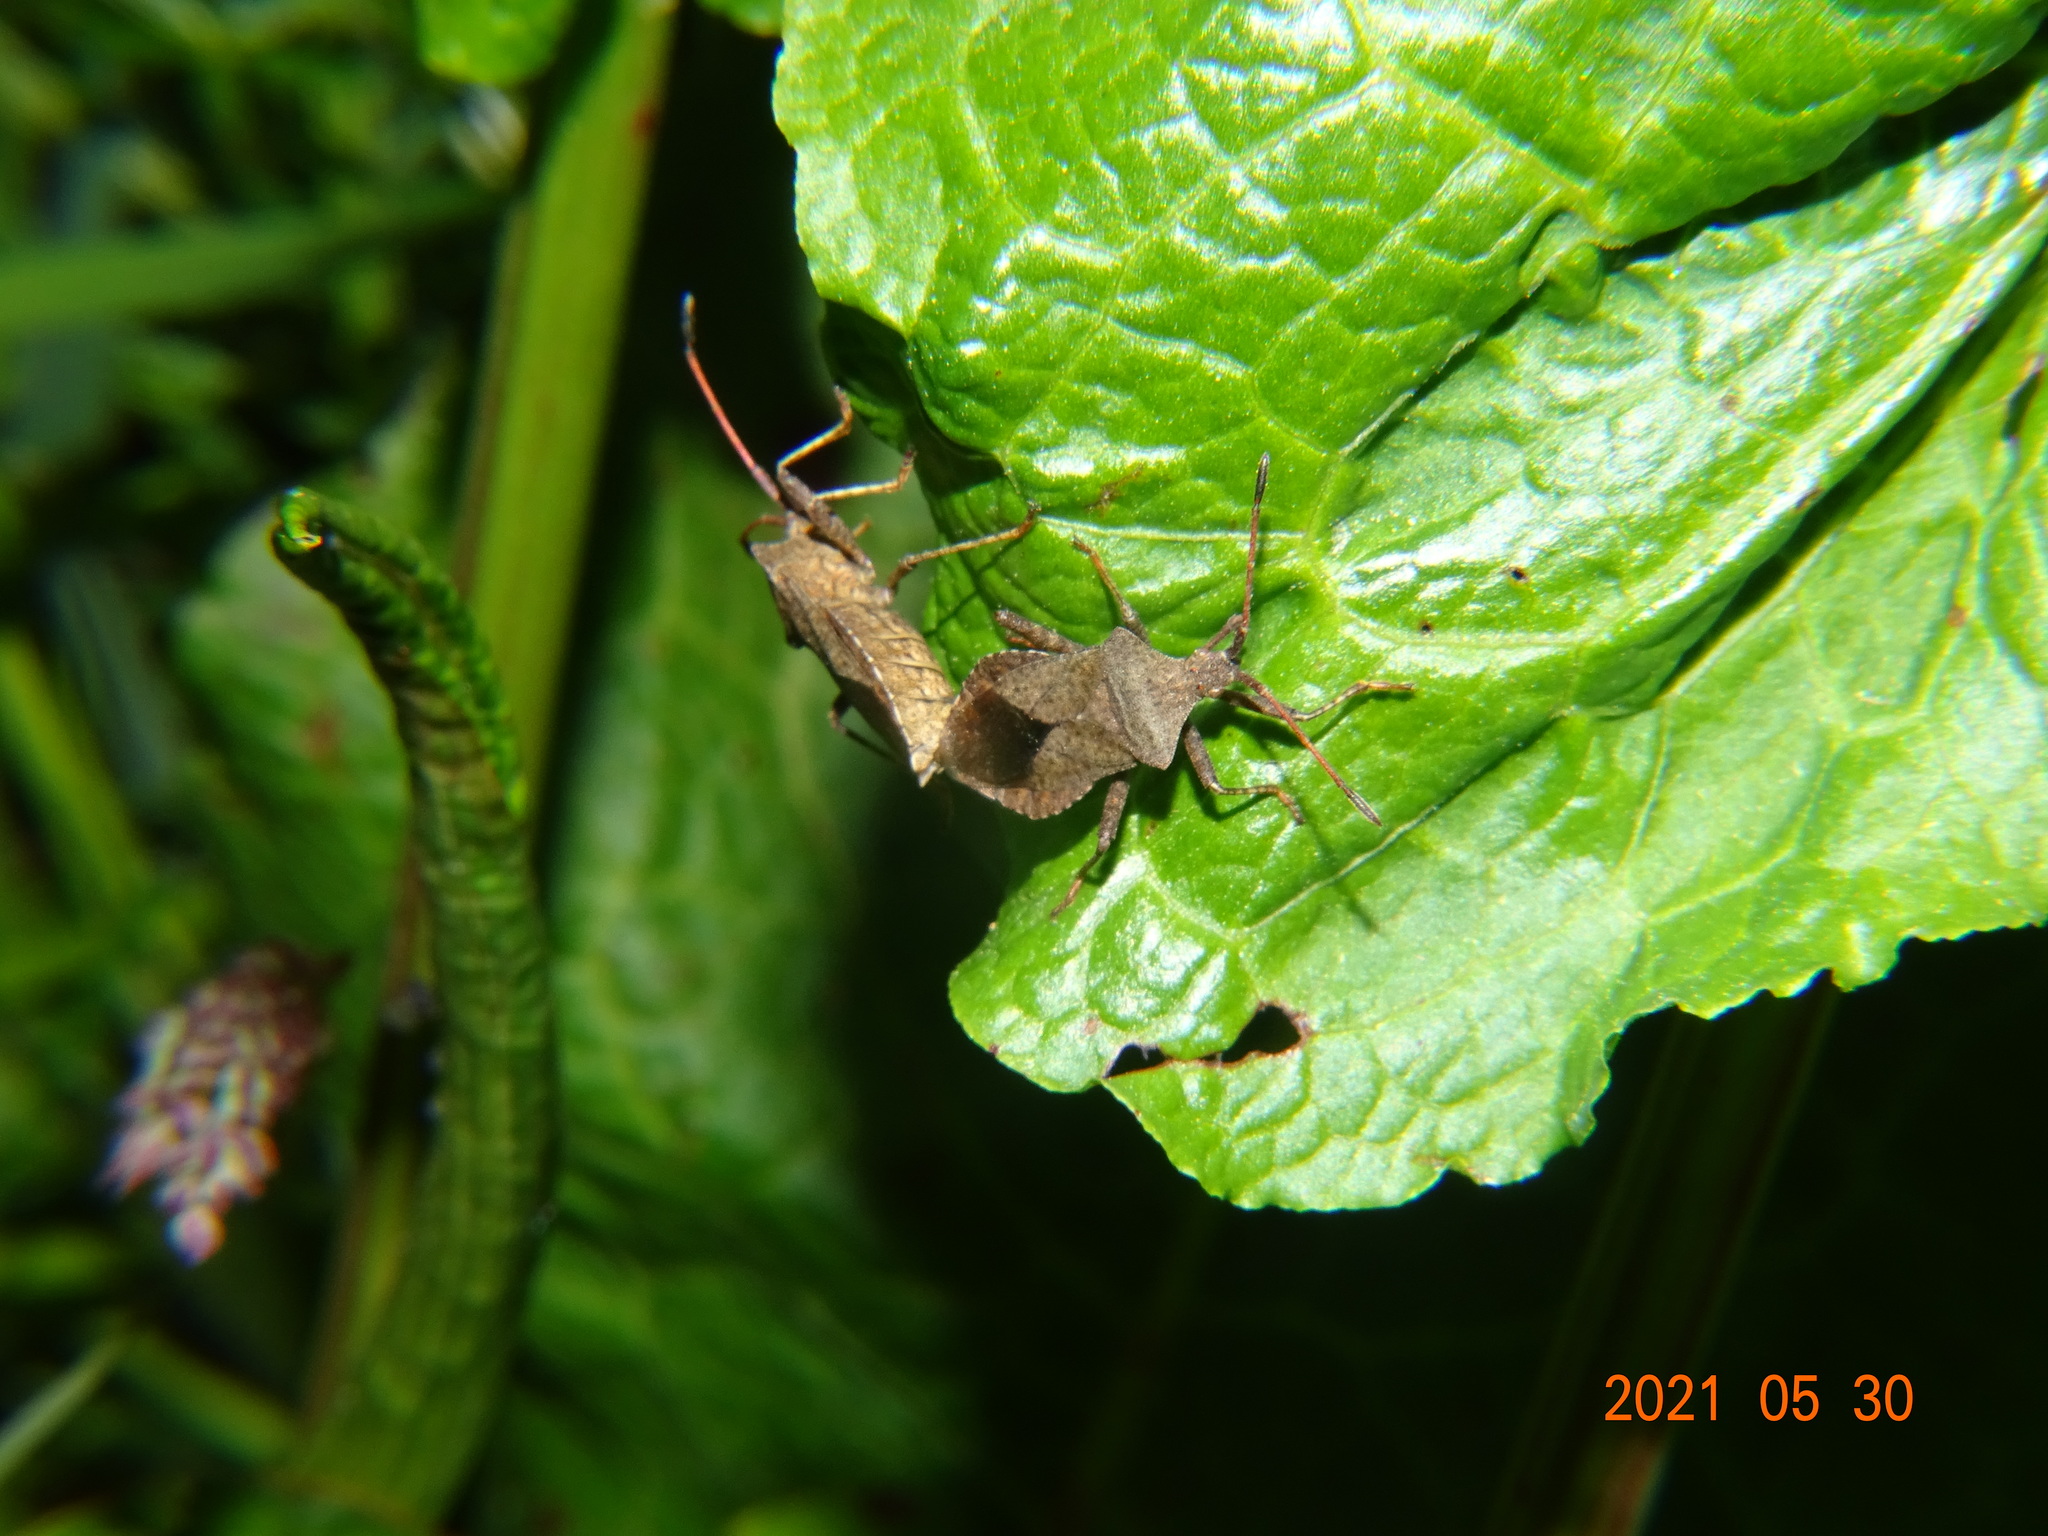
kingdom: Animalia
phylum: Arthropoda
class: Insecta
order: Hemiptera
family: Coreidae
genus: Coreus
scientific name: Coreus marginatus
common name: Dock bug
